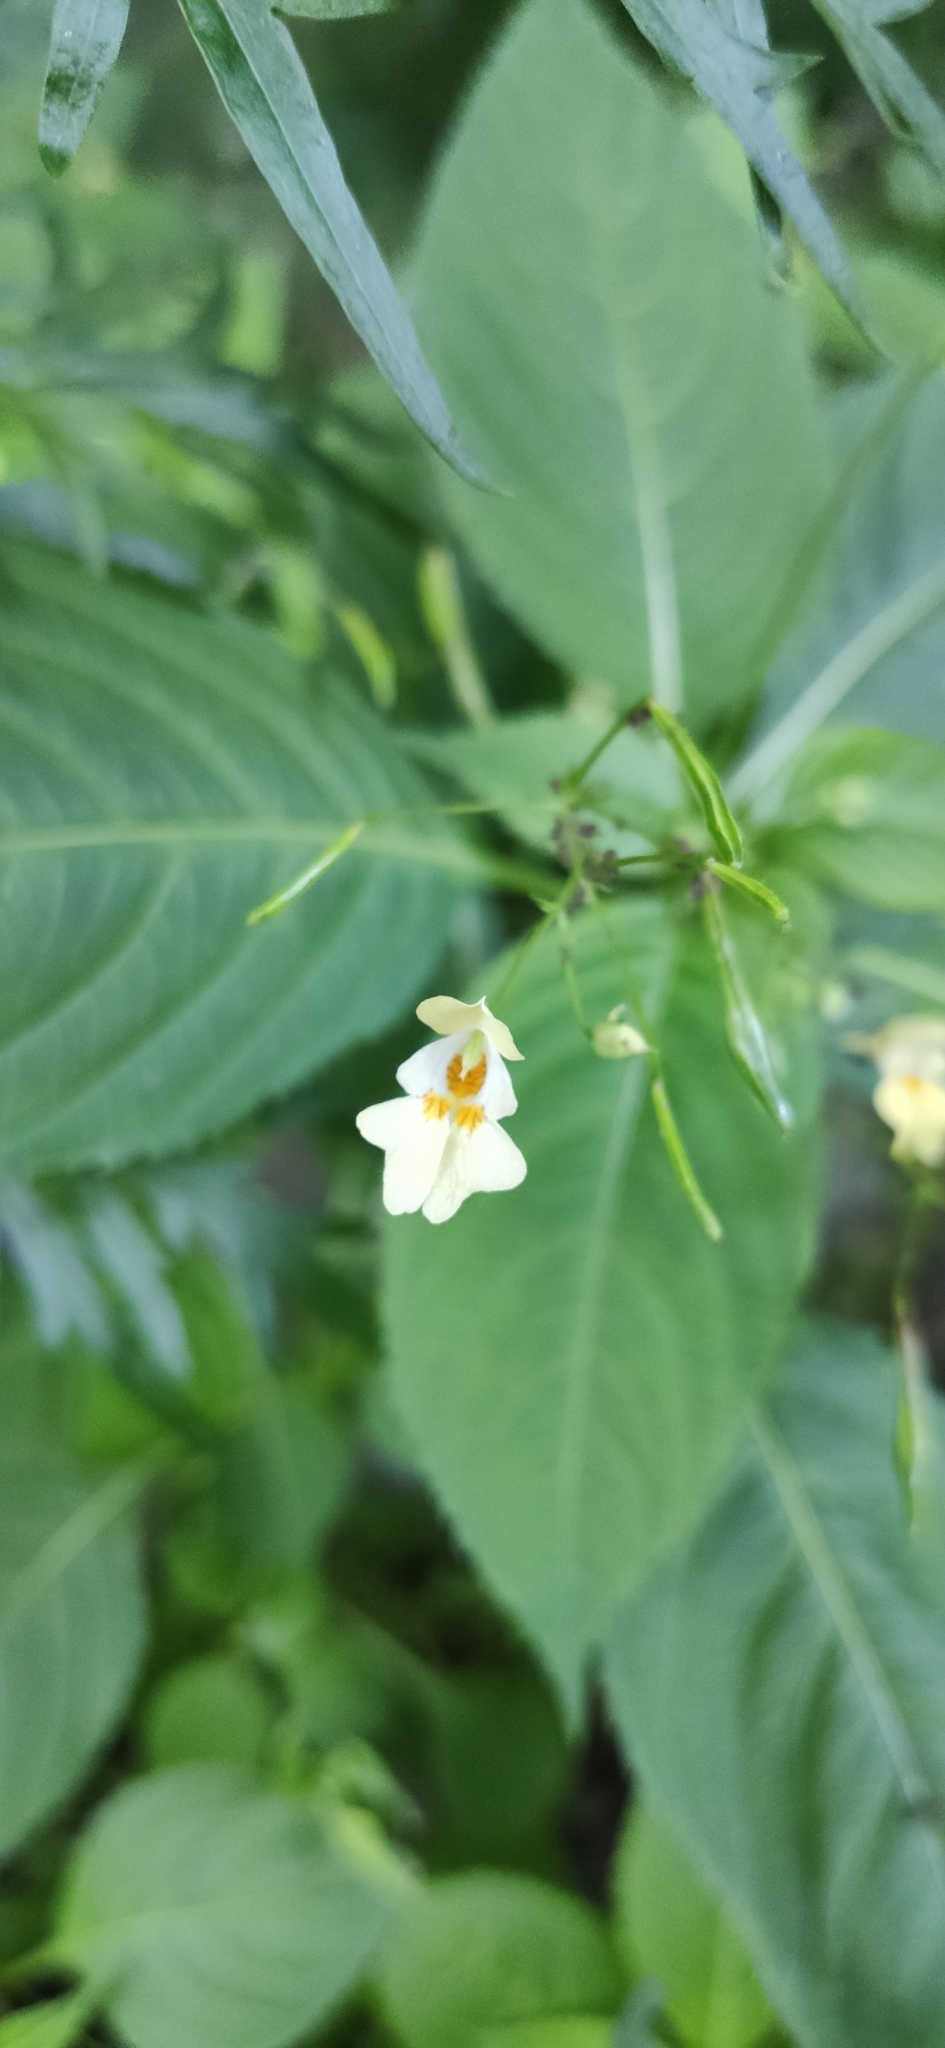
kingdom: Plantae
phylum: Tracheophyta
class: Magnoliopsida
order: Ericales
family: Balsaminaceae
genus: Impatiens
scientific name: Impatiens parviflora
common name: Small balsam
